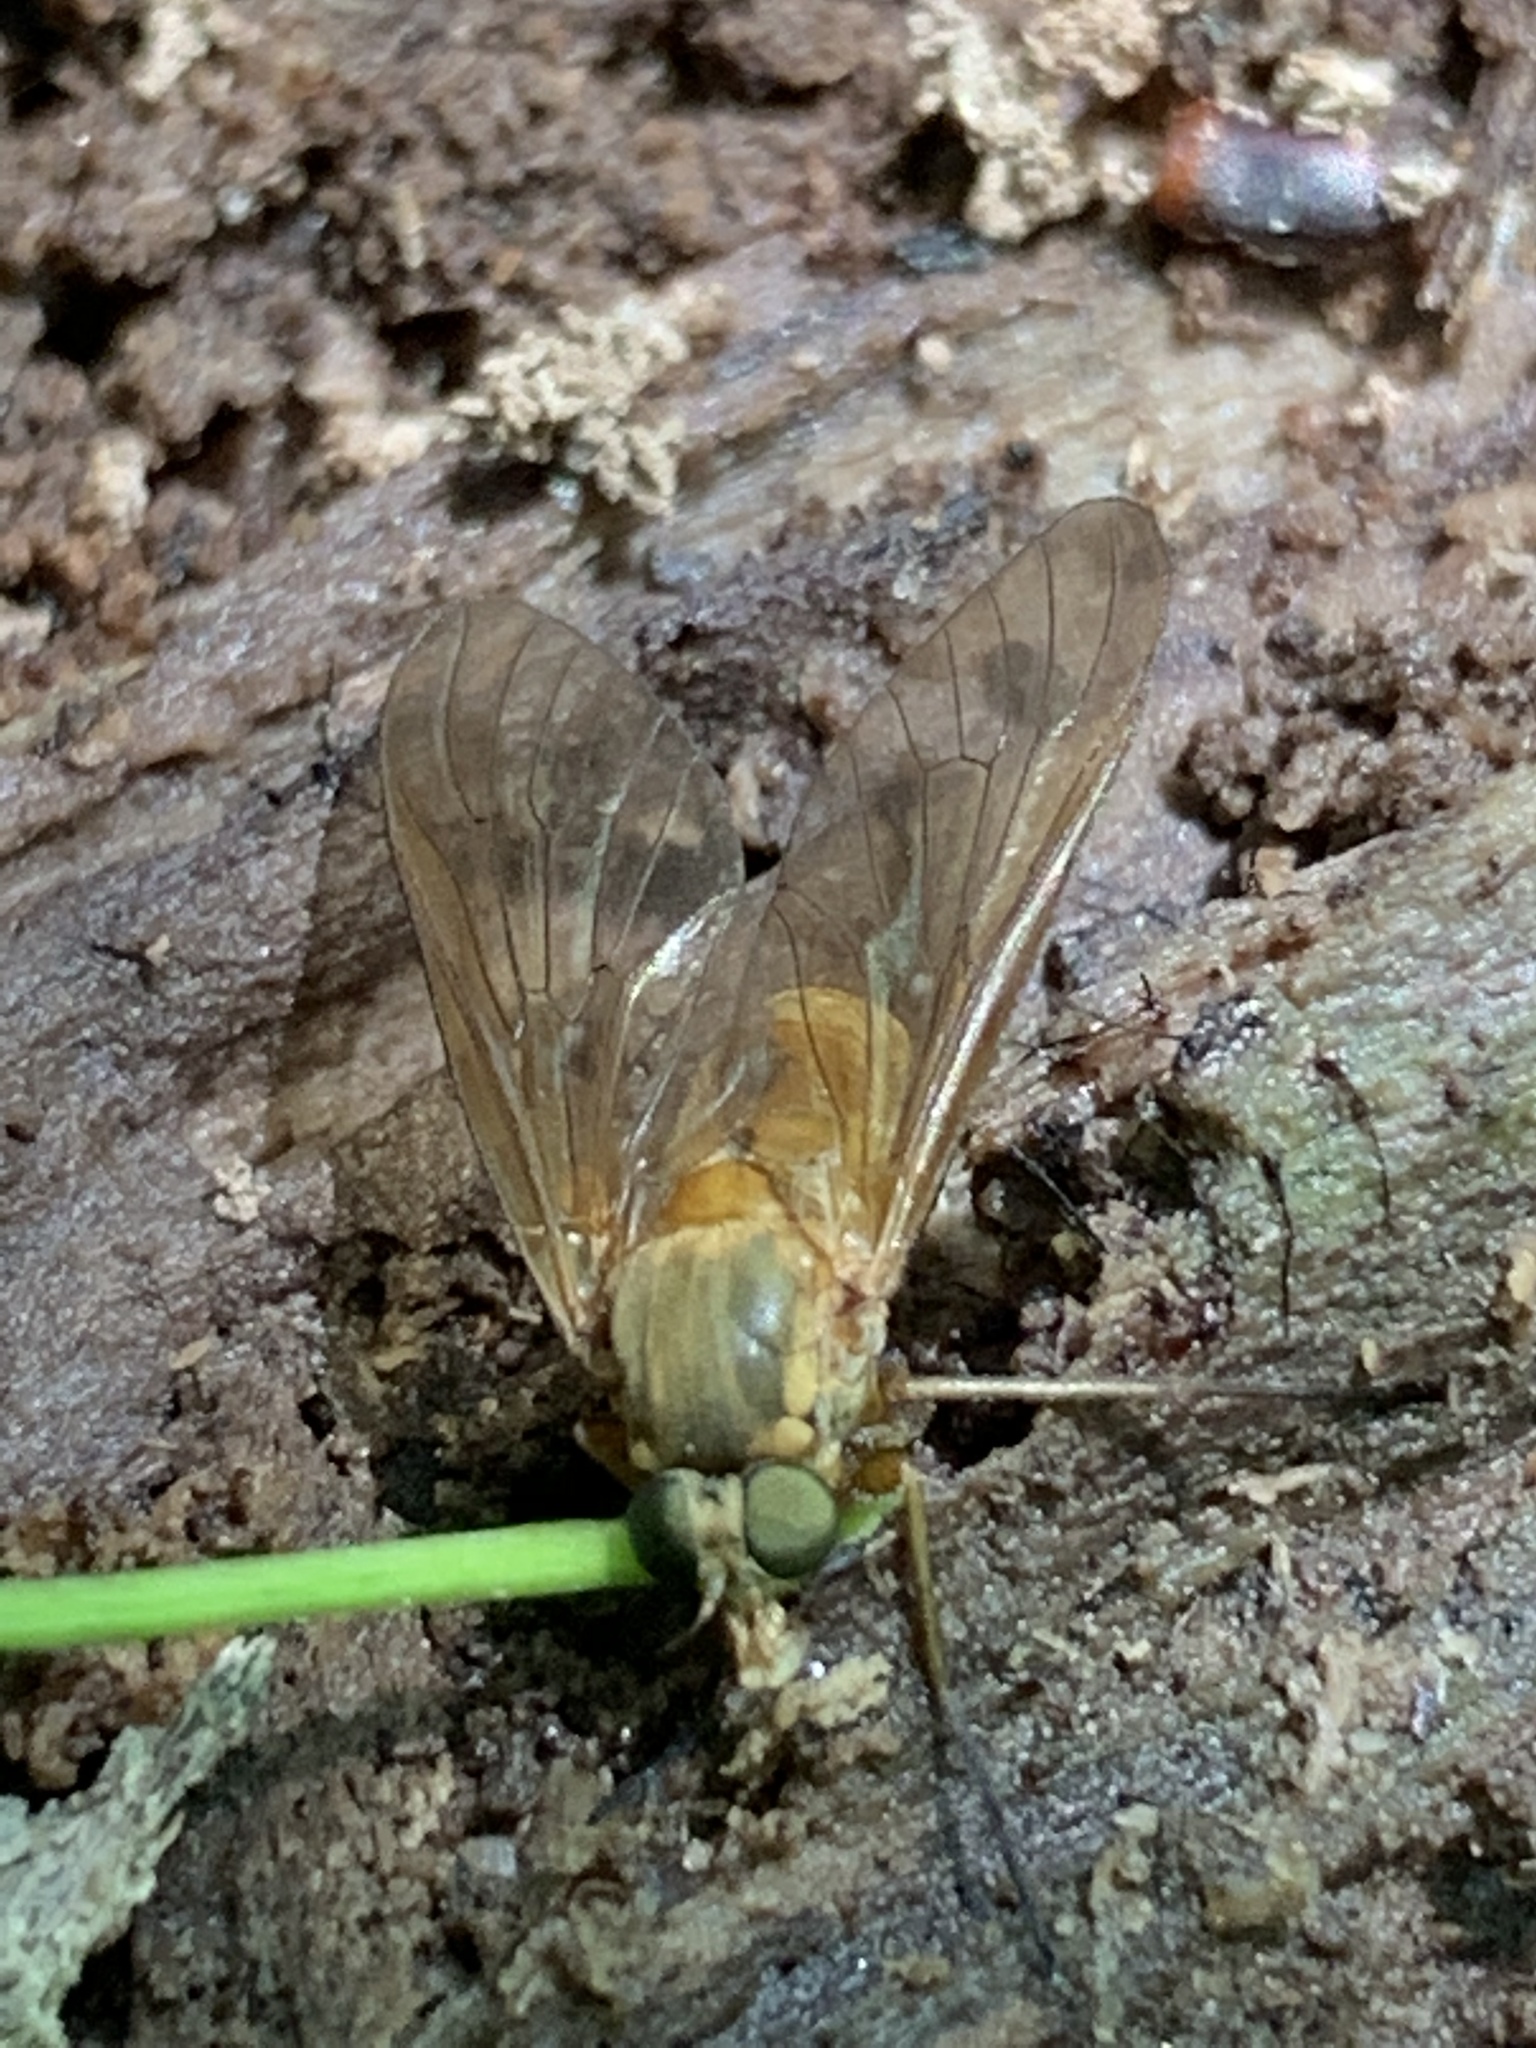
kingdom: Animalia
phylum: Arthropoda
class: Insecta
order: Diptera
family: Rhagionidae
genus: Rhagio
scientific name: Rhagio tringaria
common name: Marsh snipefly
